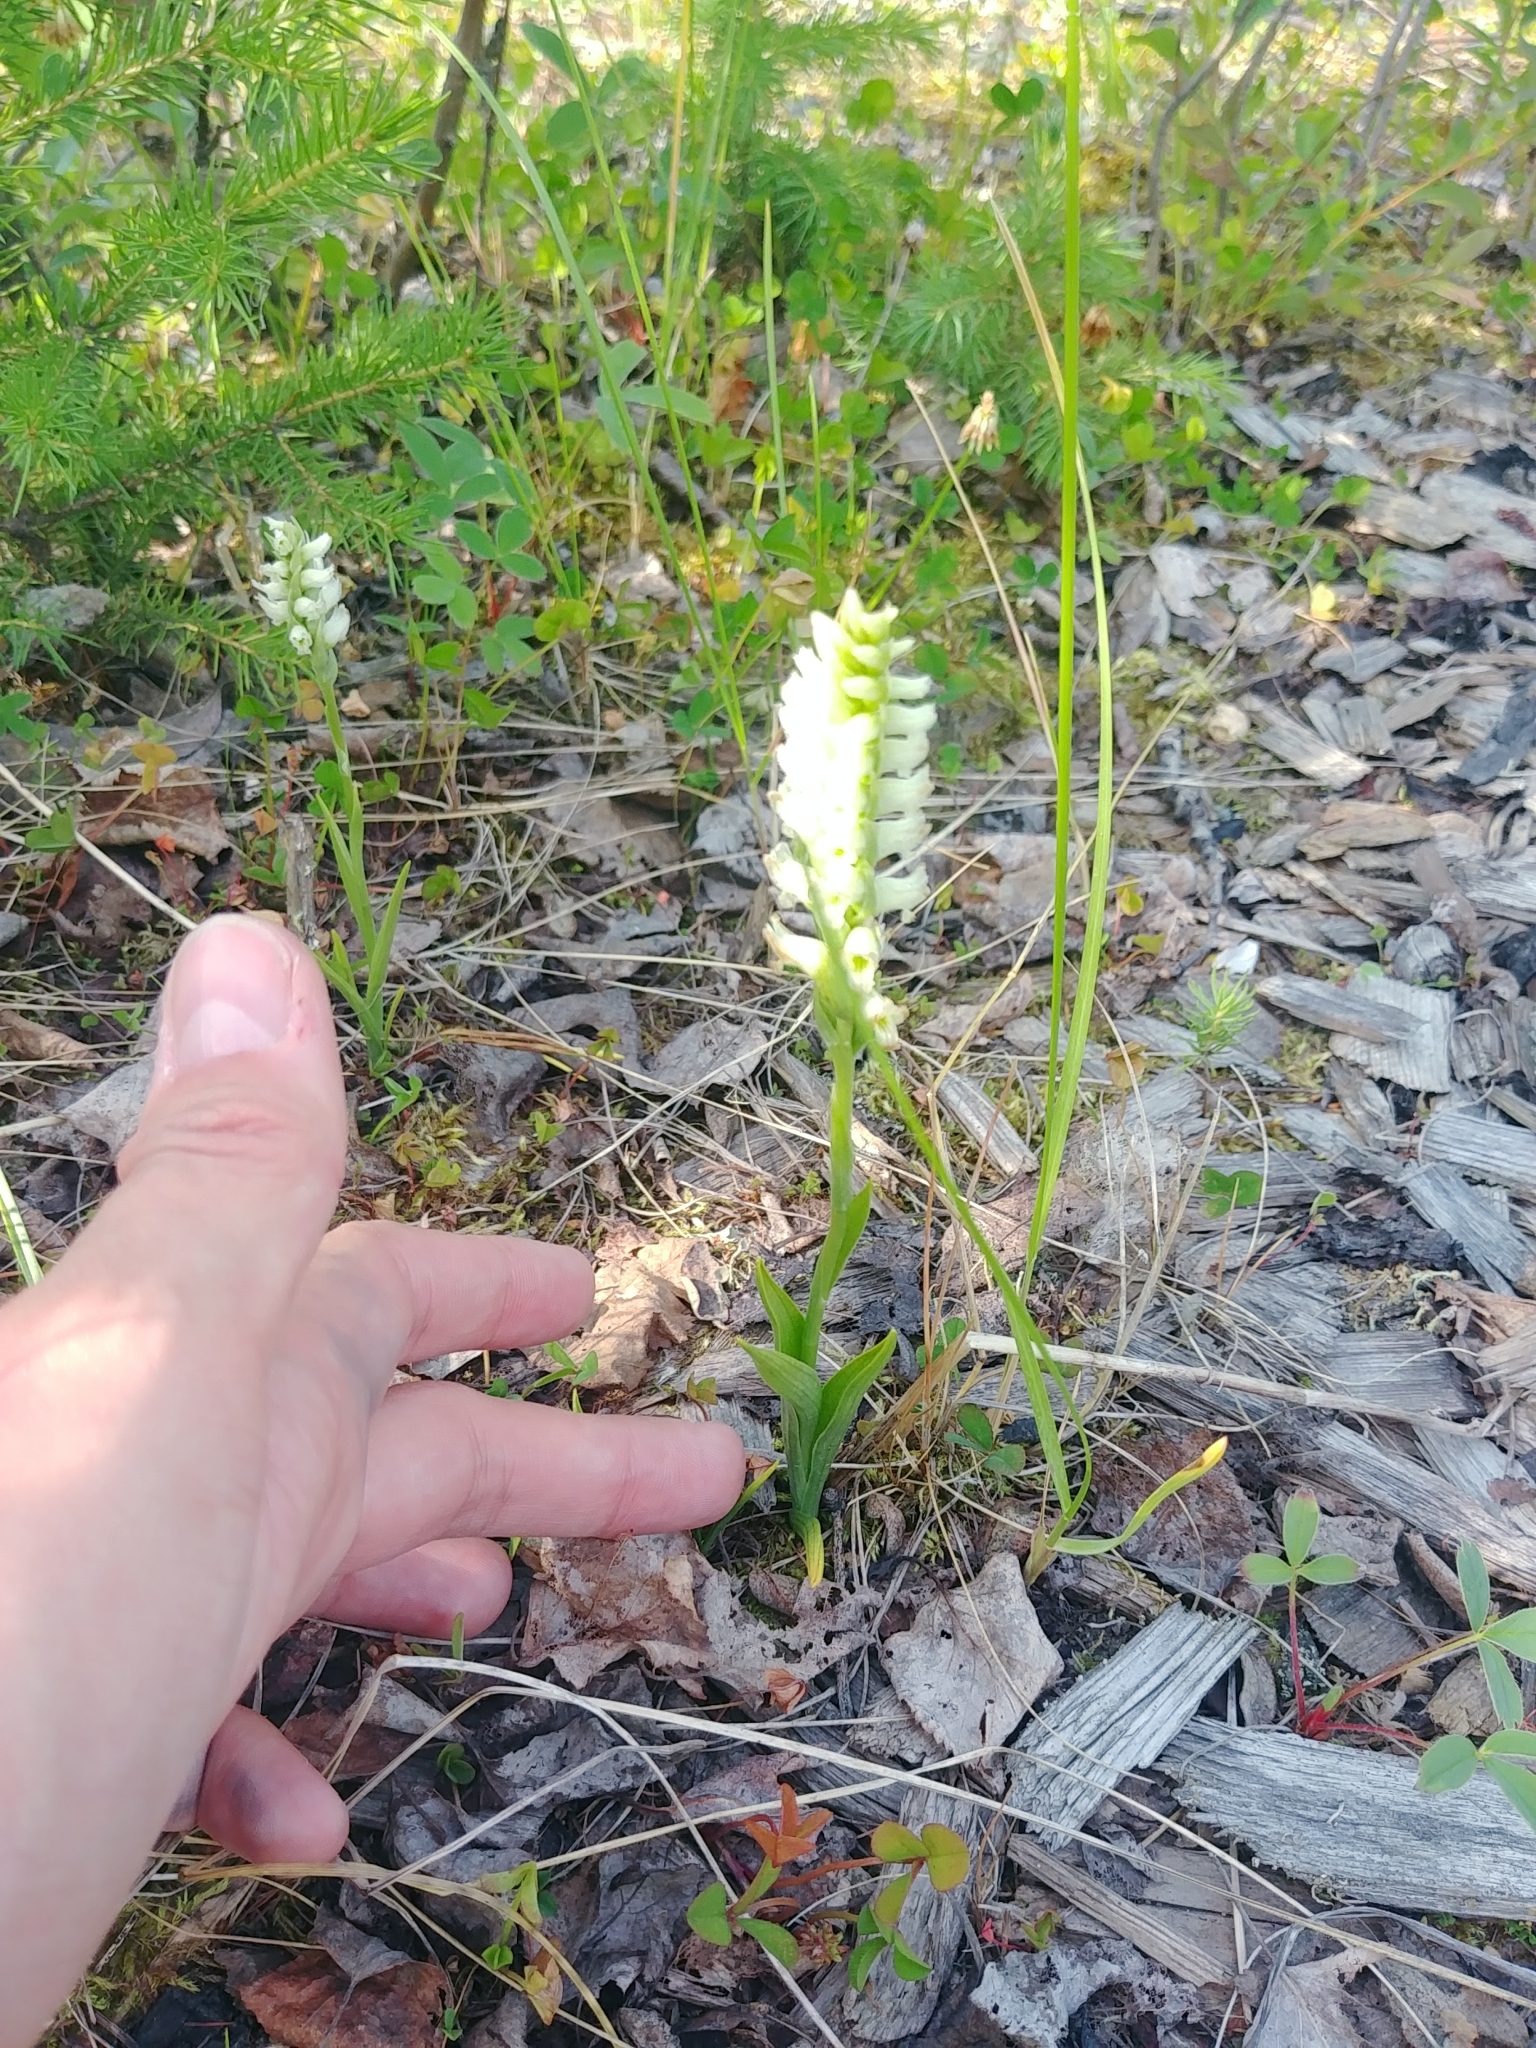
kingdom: Plantae
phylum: Tracheophyta
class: Liliopsida
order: Asparagales
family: Orchidaceae
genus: Spiranthes
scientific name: Spiranthes romanzoffiana
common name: Irish lady's-tresses
